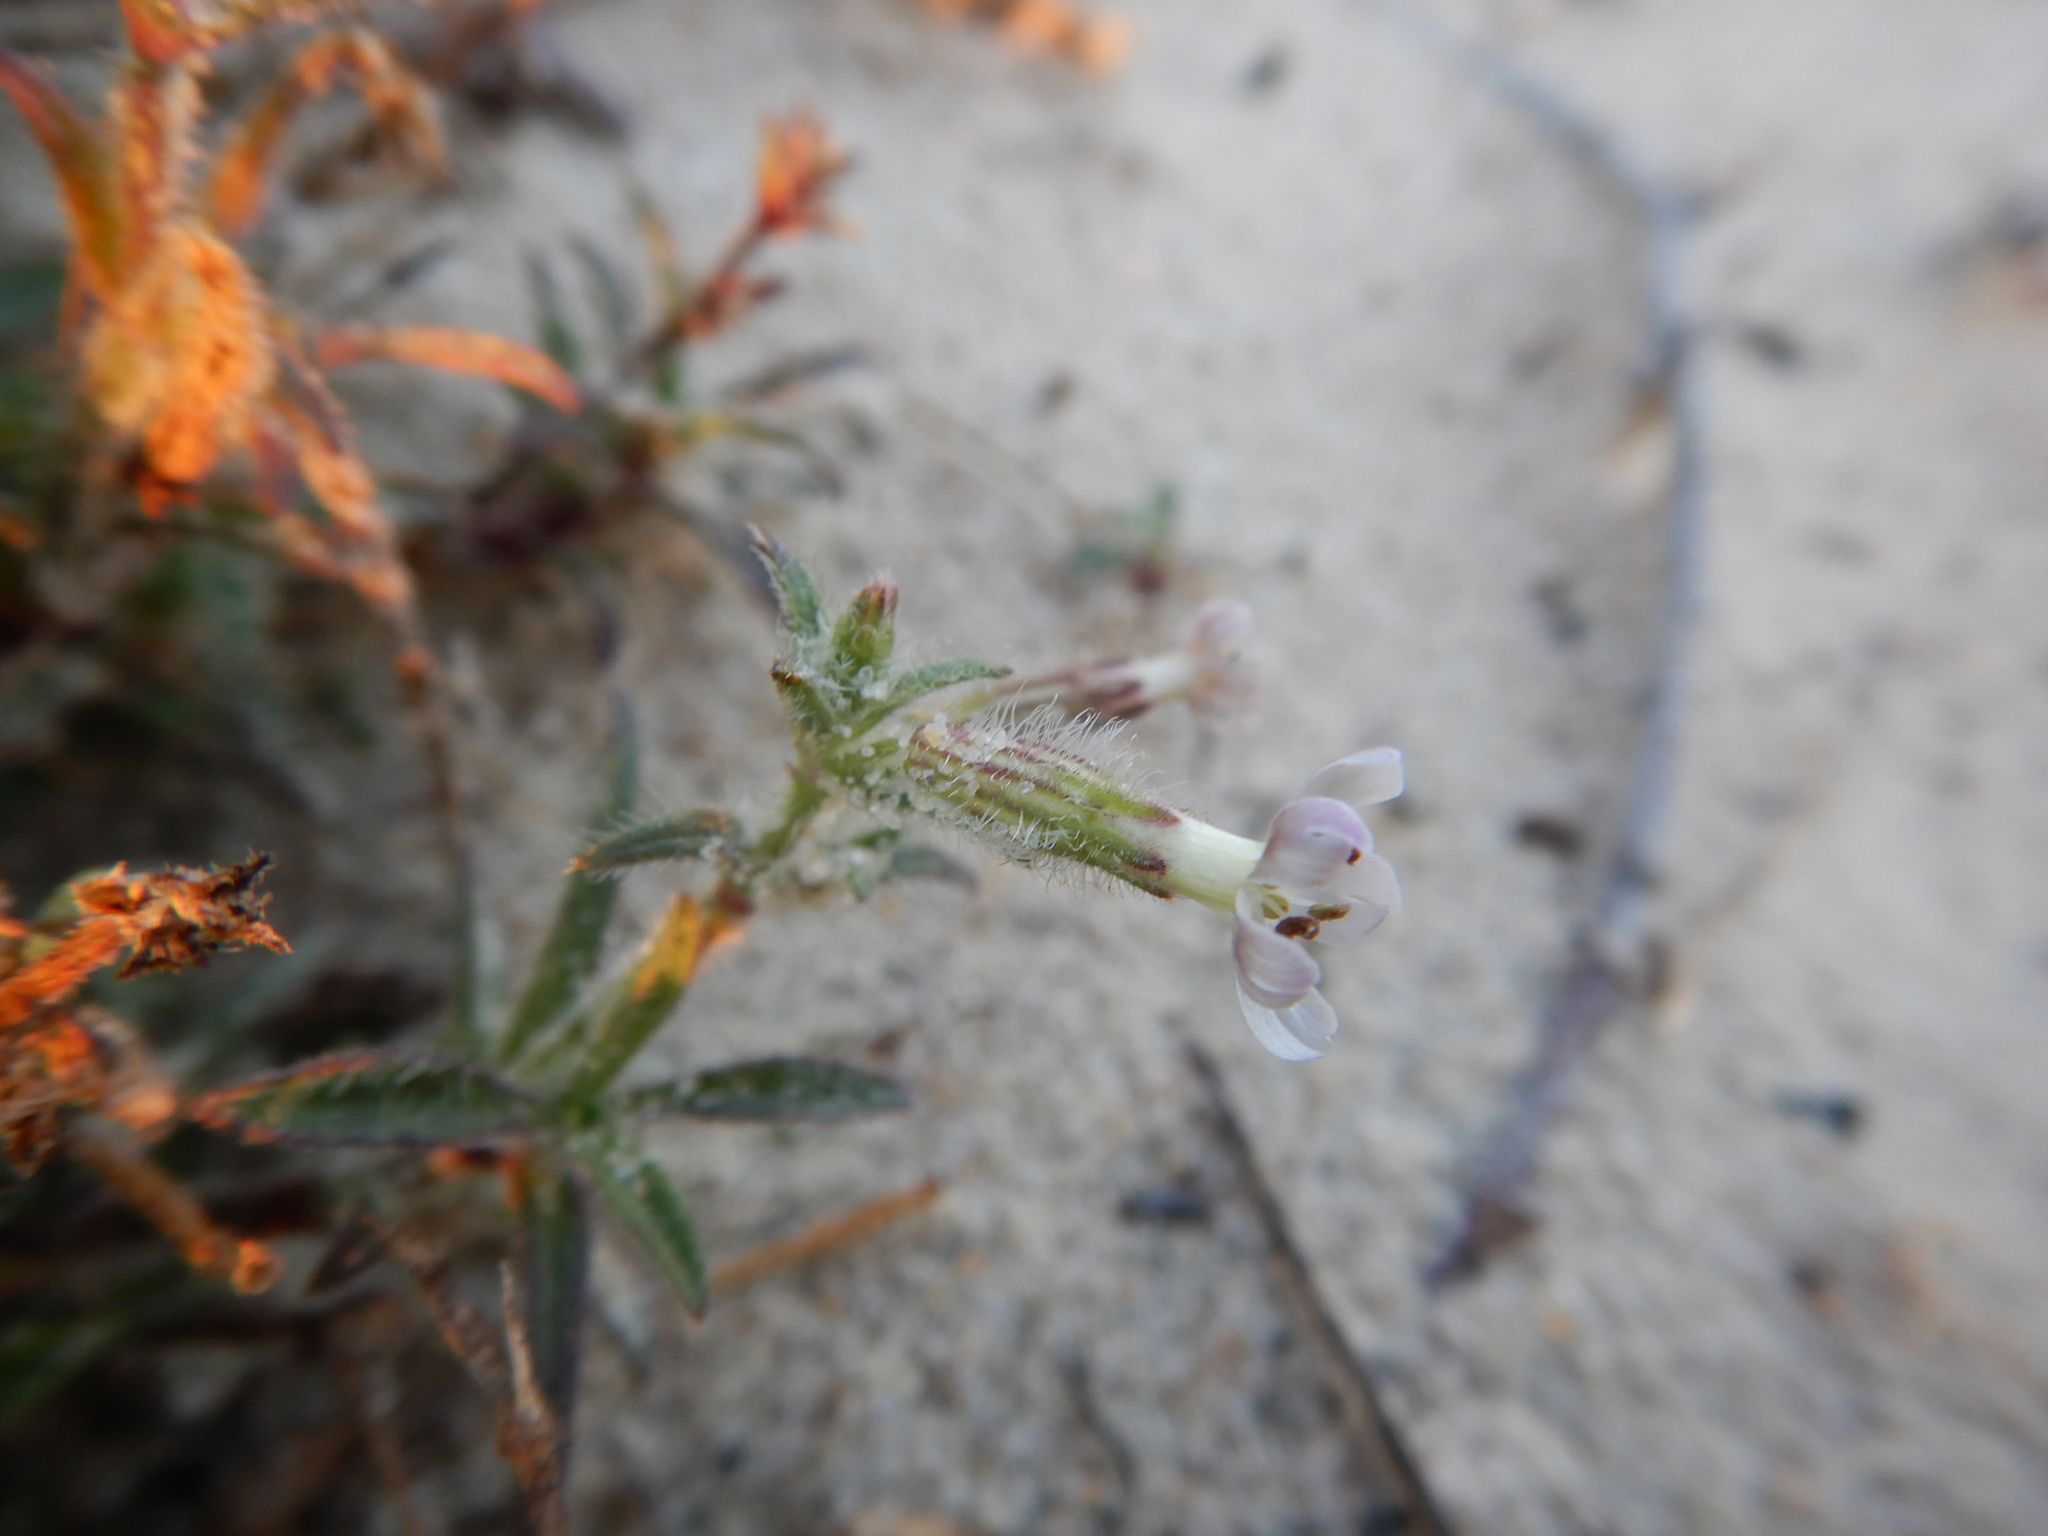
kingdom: Plantae
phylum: Tracheophyta
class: Magnoliopsida
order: Caryophyllales
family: Caryophyllaceae
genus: Silene
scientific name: Silene nicaeensis
